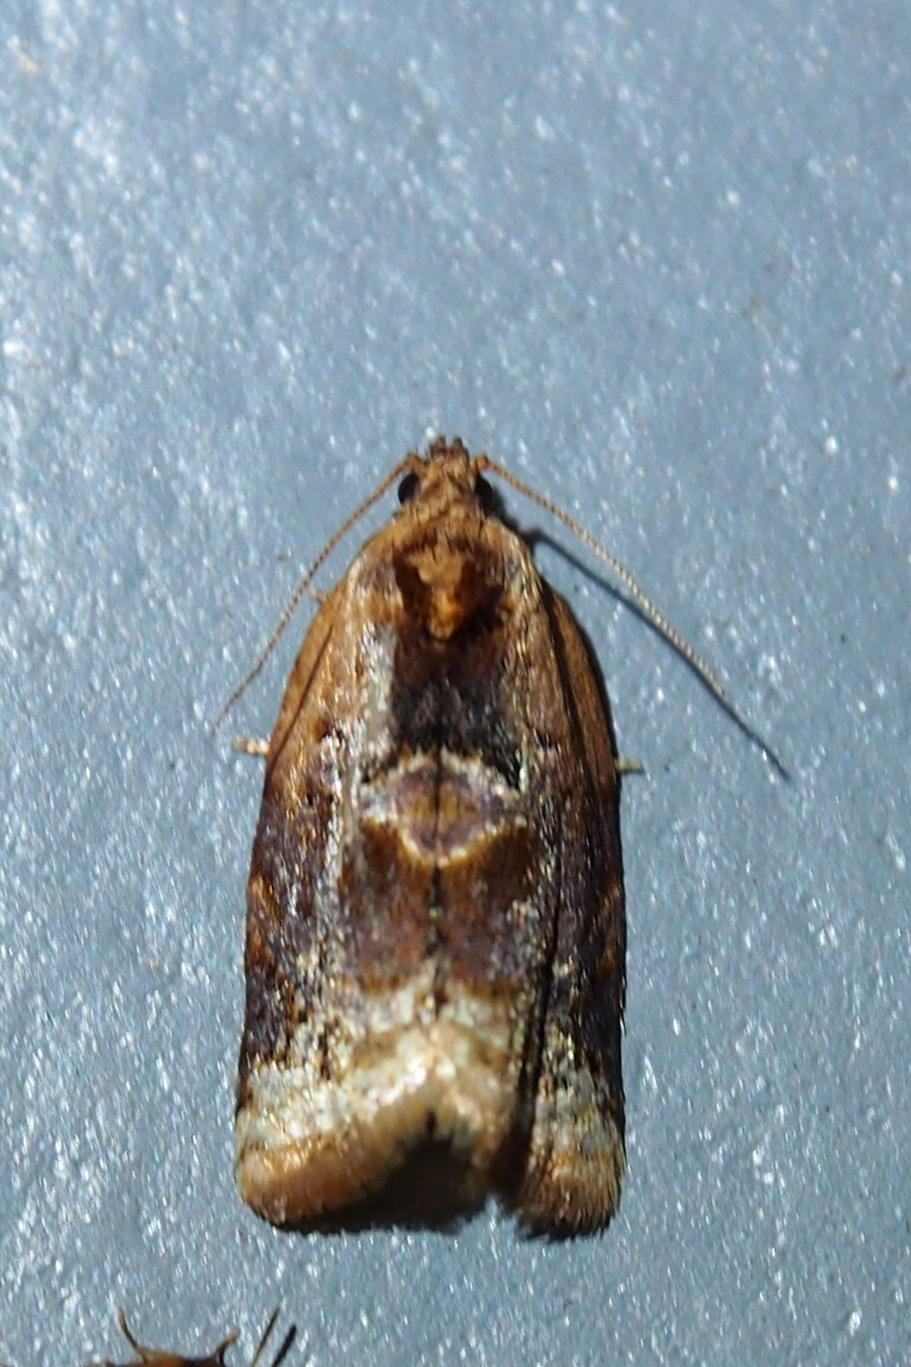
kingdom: Animalia
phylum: Arthropoda
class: Insecta
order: Lepidoptera
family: Tortricidae
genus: Argyrotaenia
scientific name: Argyrotaenia velutinana
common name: Red-banded leafroller moth
